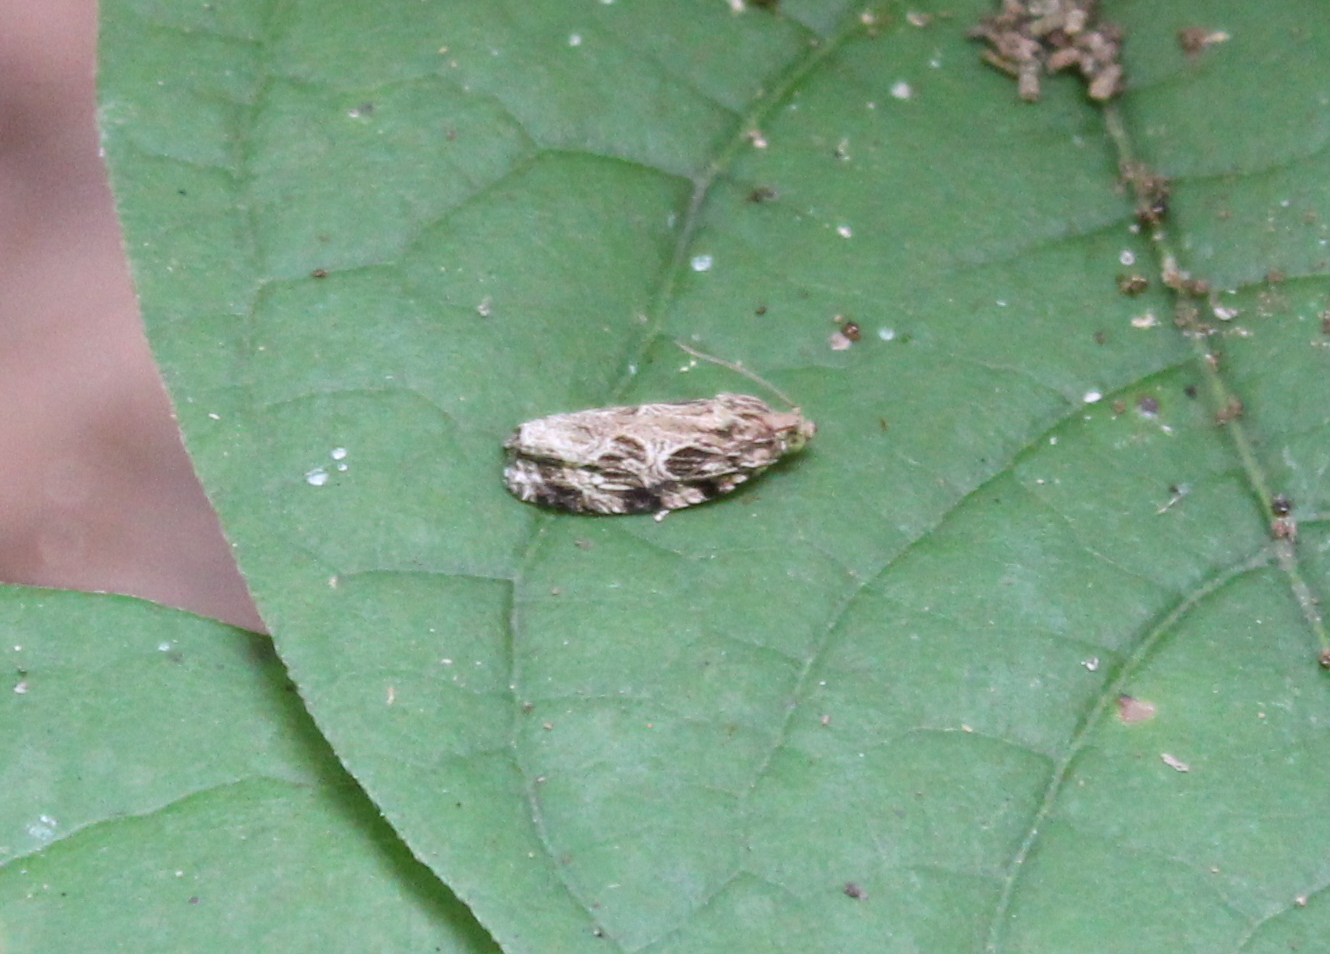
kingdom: Animalia
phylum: Arthropoda
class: Insecta
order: Lepidoptera
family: Tortricidae
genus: Phaecasiophora
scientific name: Phaecasiophora confixana
